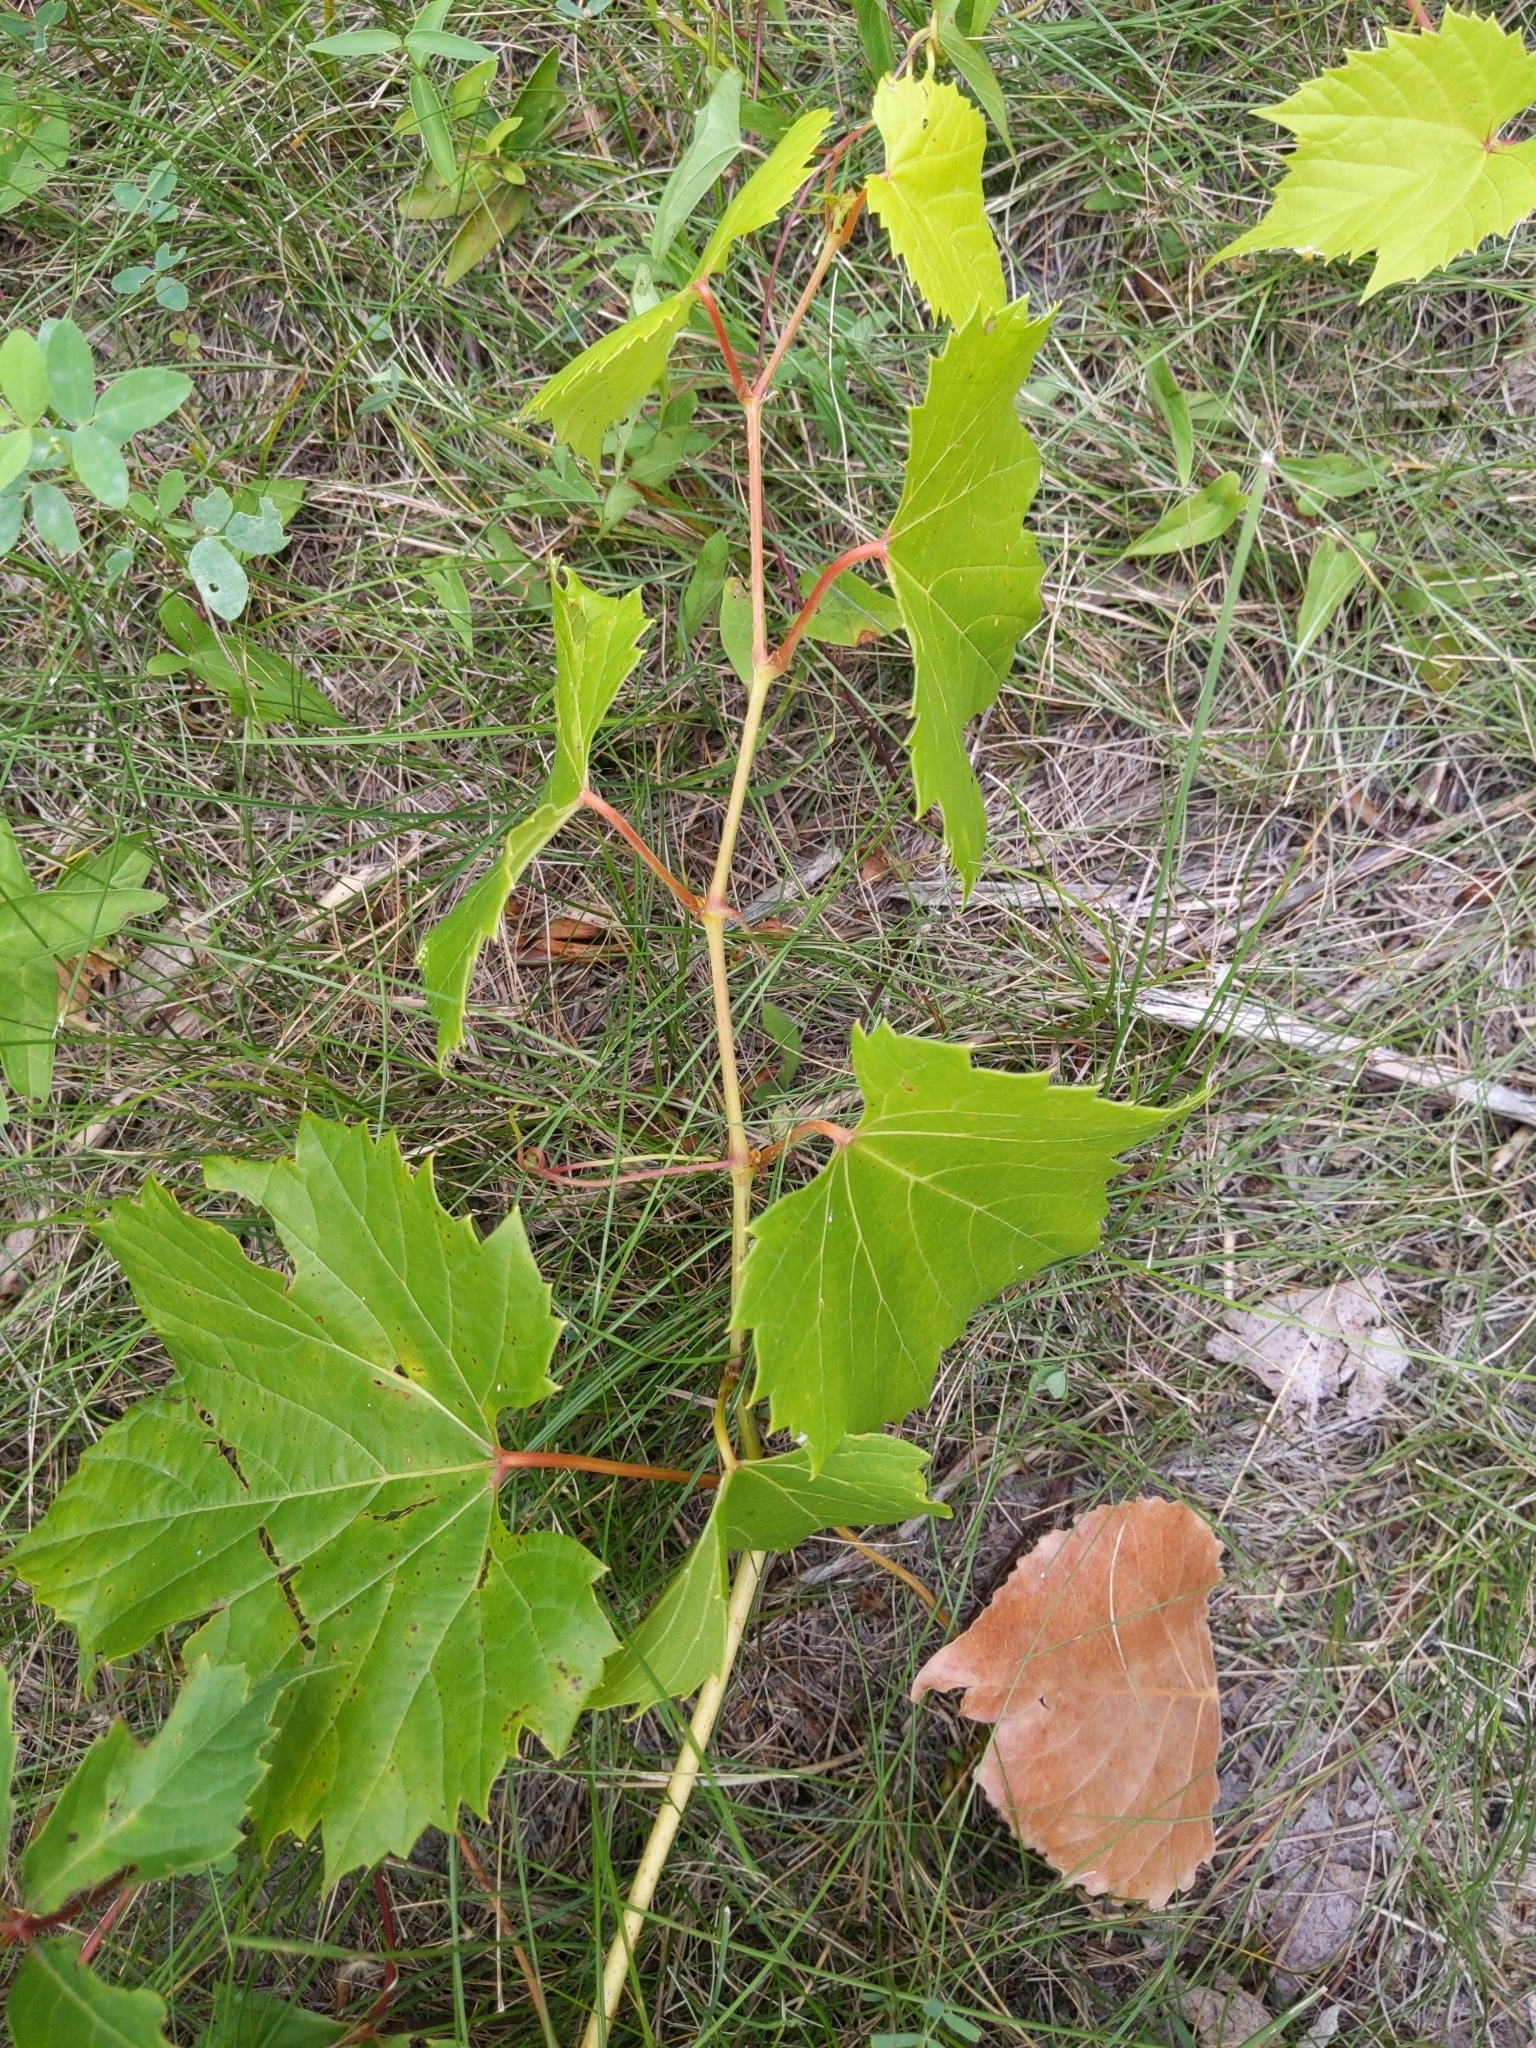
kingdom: Plantae
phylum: Tracheophyta
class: Magnoliopsida
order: Vitales
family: Vitaceae
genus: Vitis
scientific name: Vitis riparia
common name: Frost grape
